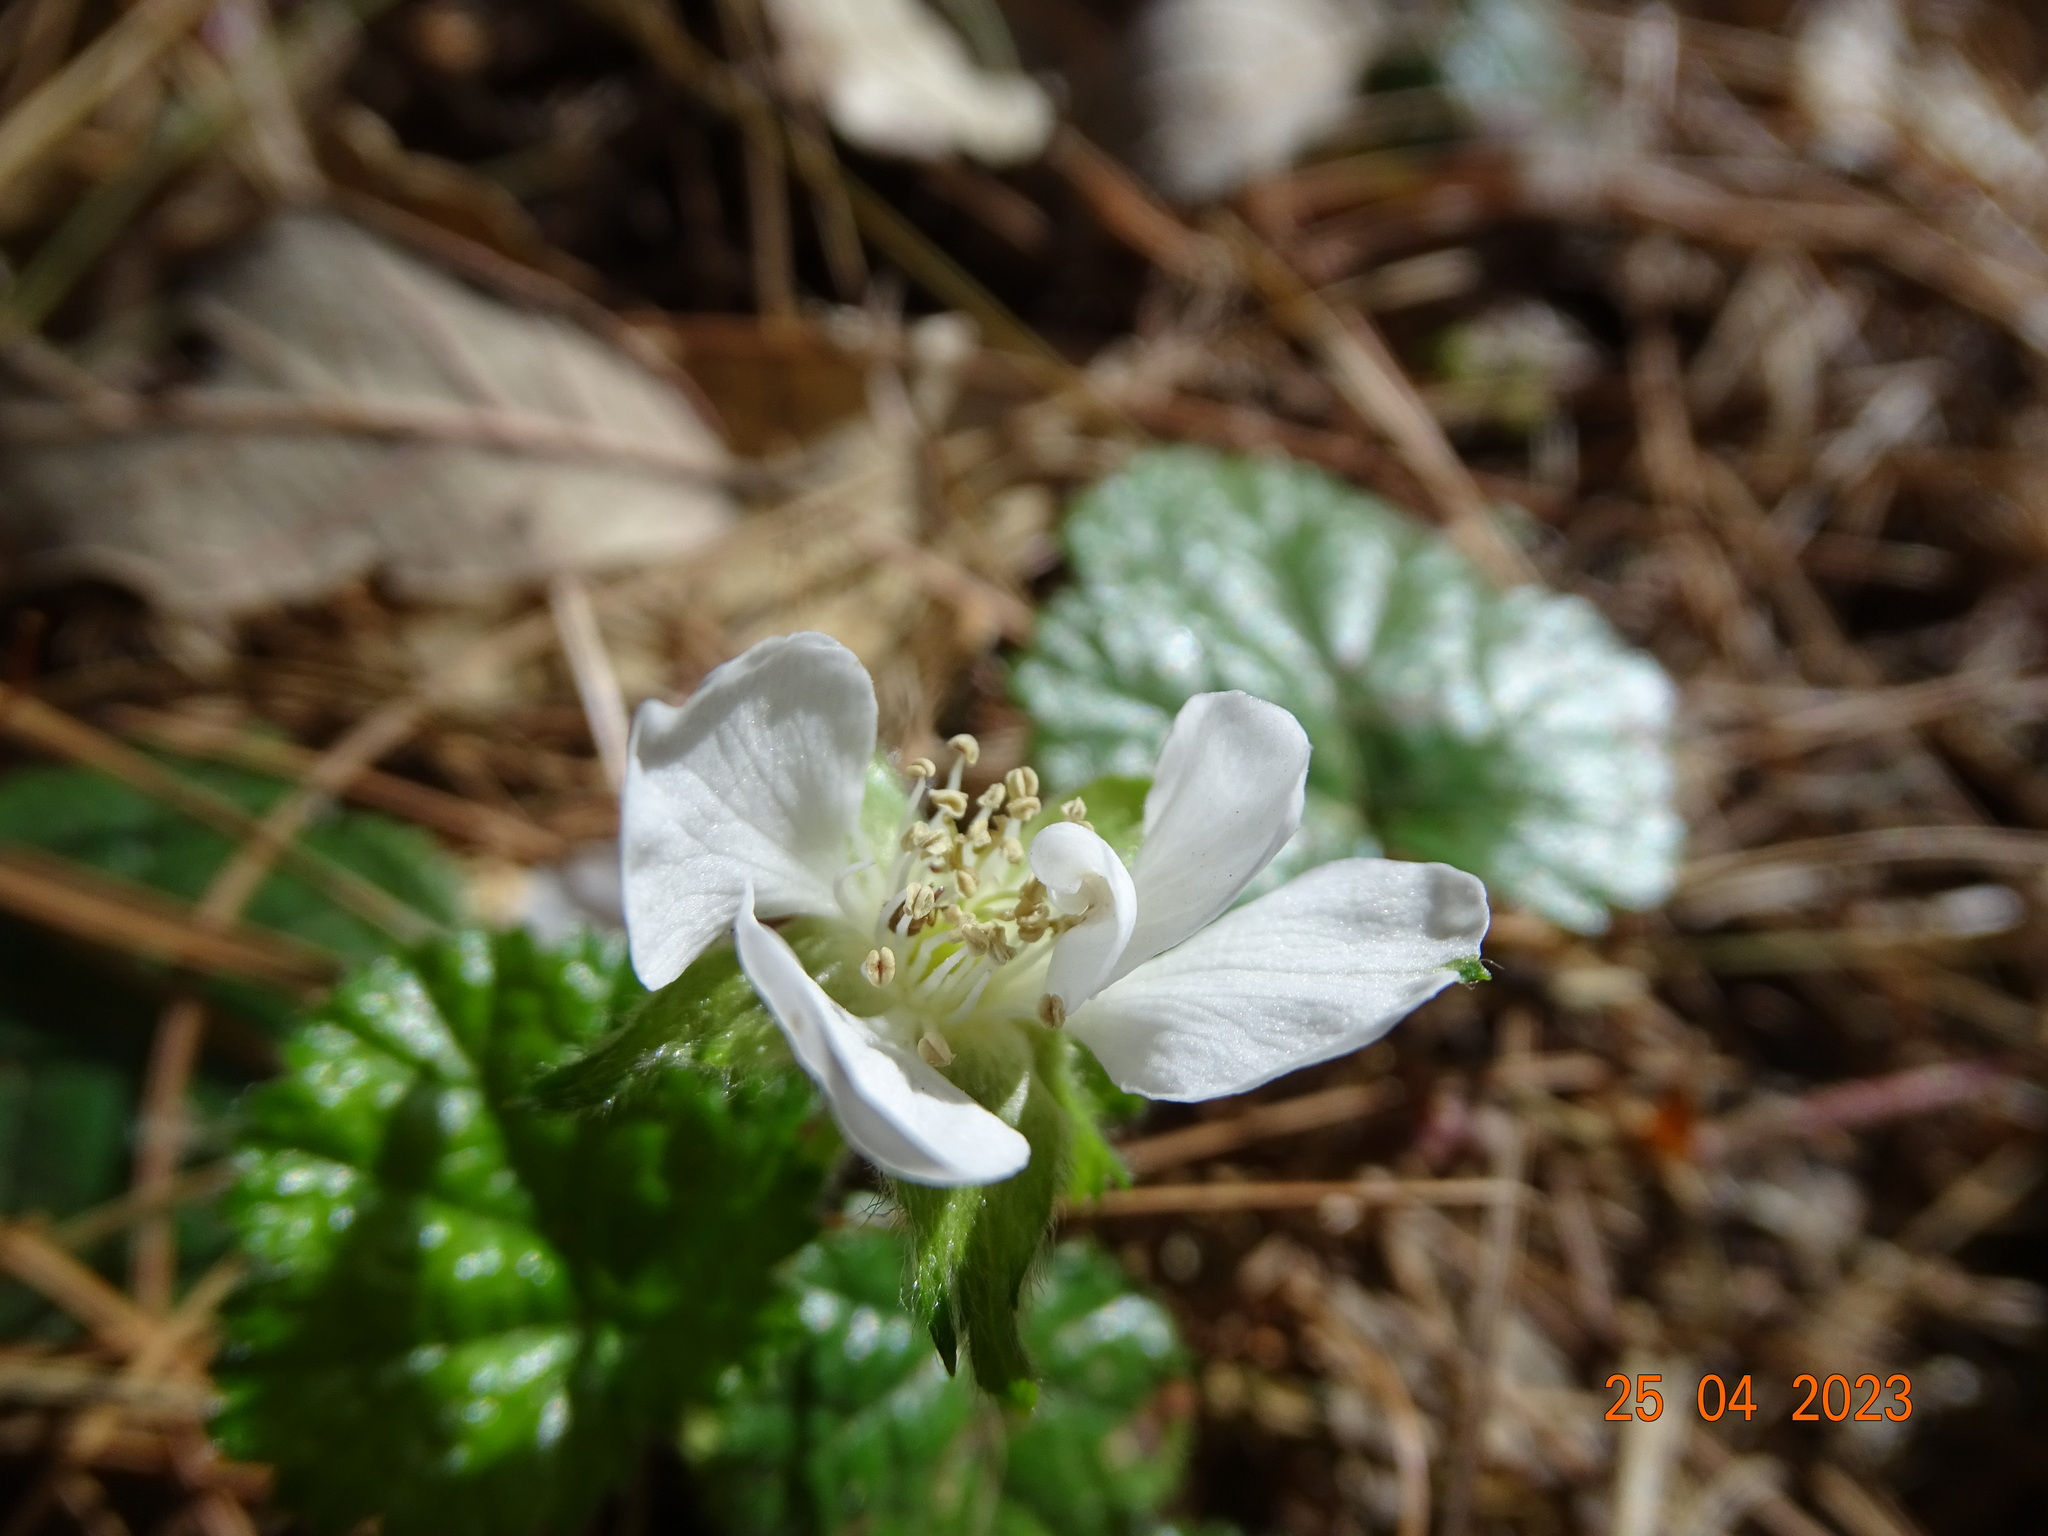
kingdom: Plantae
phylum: Tracheophyta
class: Magnoliopsida
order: Rosales
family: Rosaceae
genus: Rubus
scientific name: Rubus pumilus
